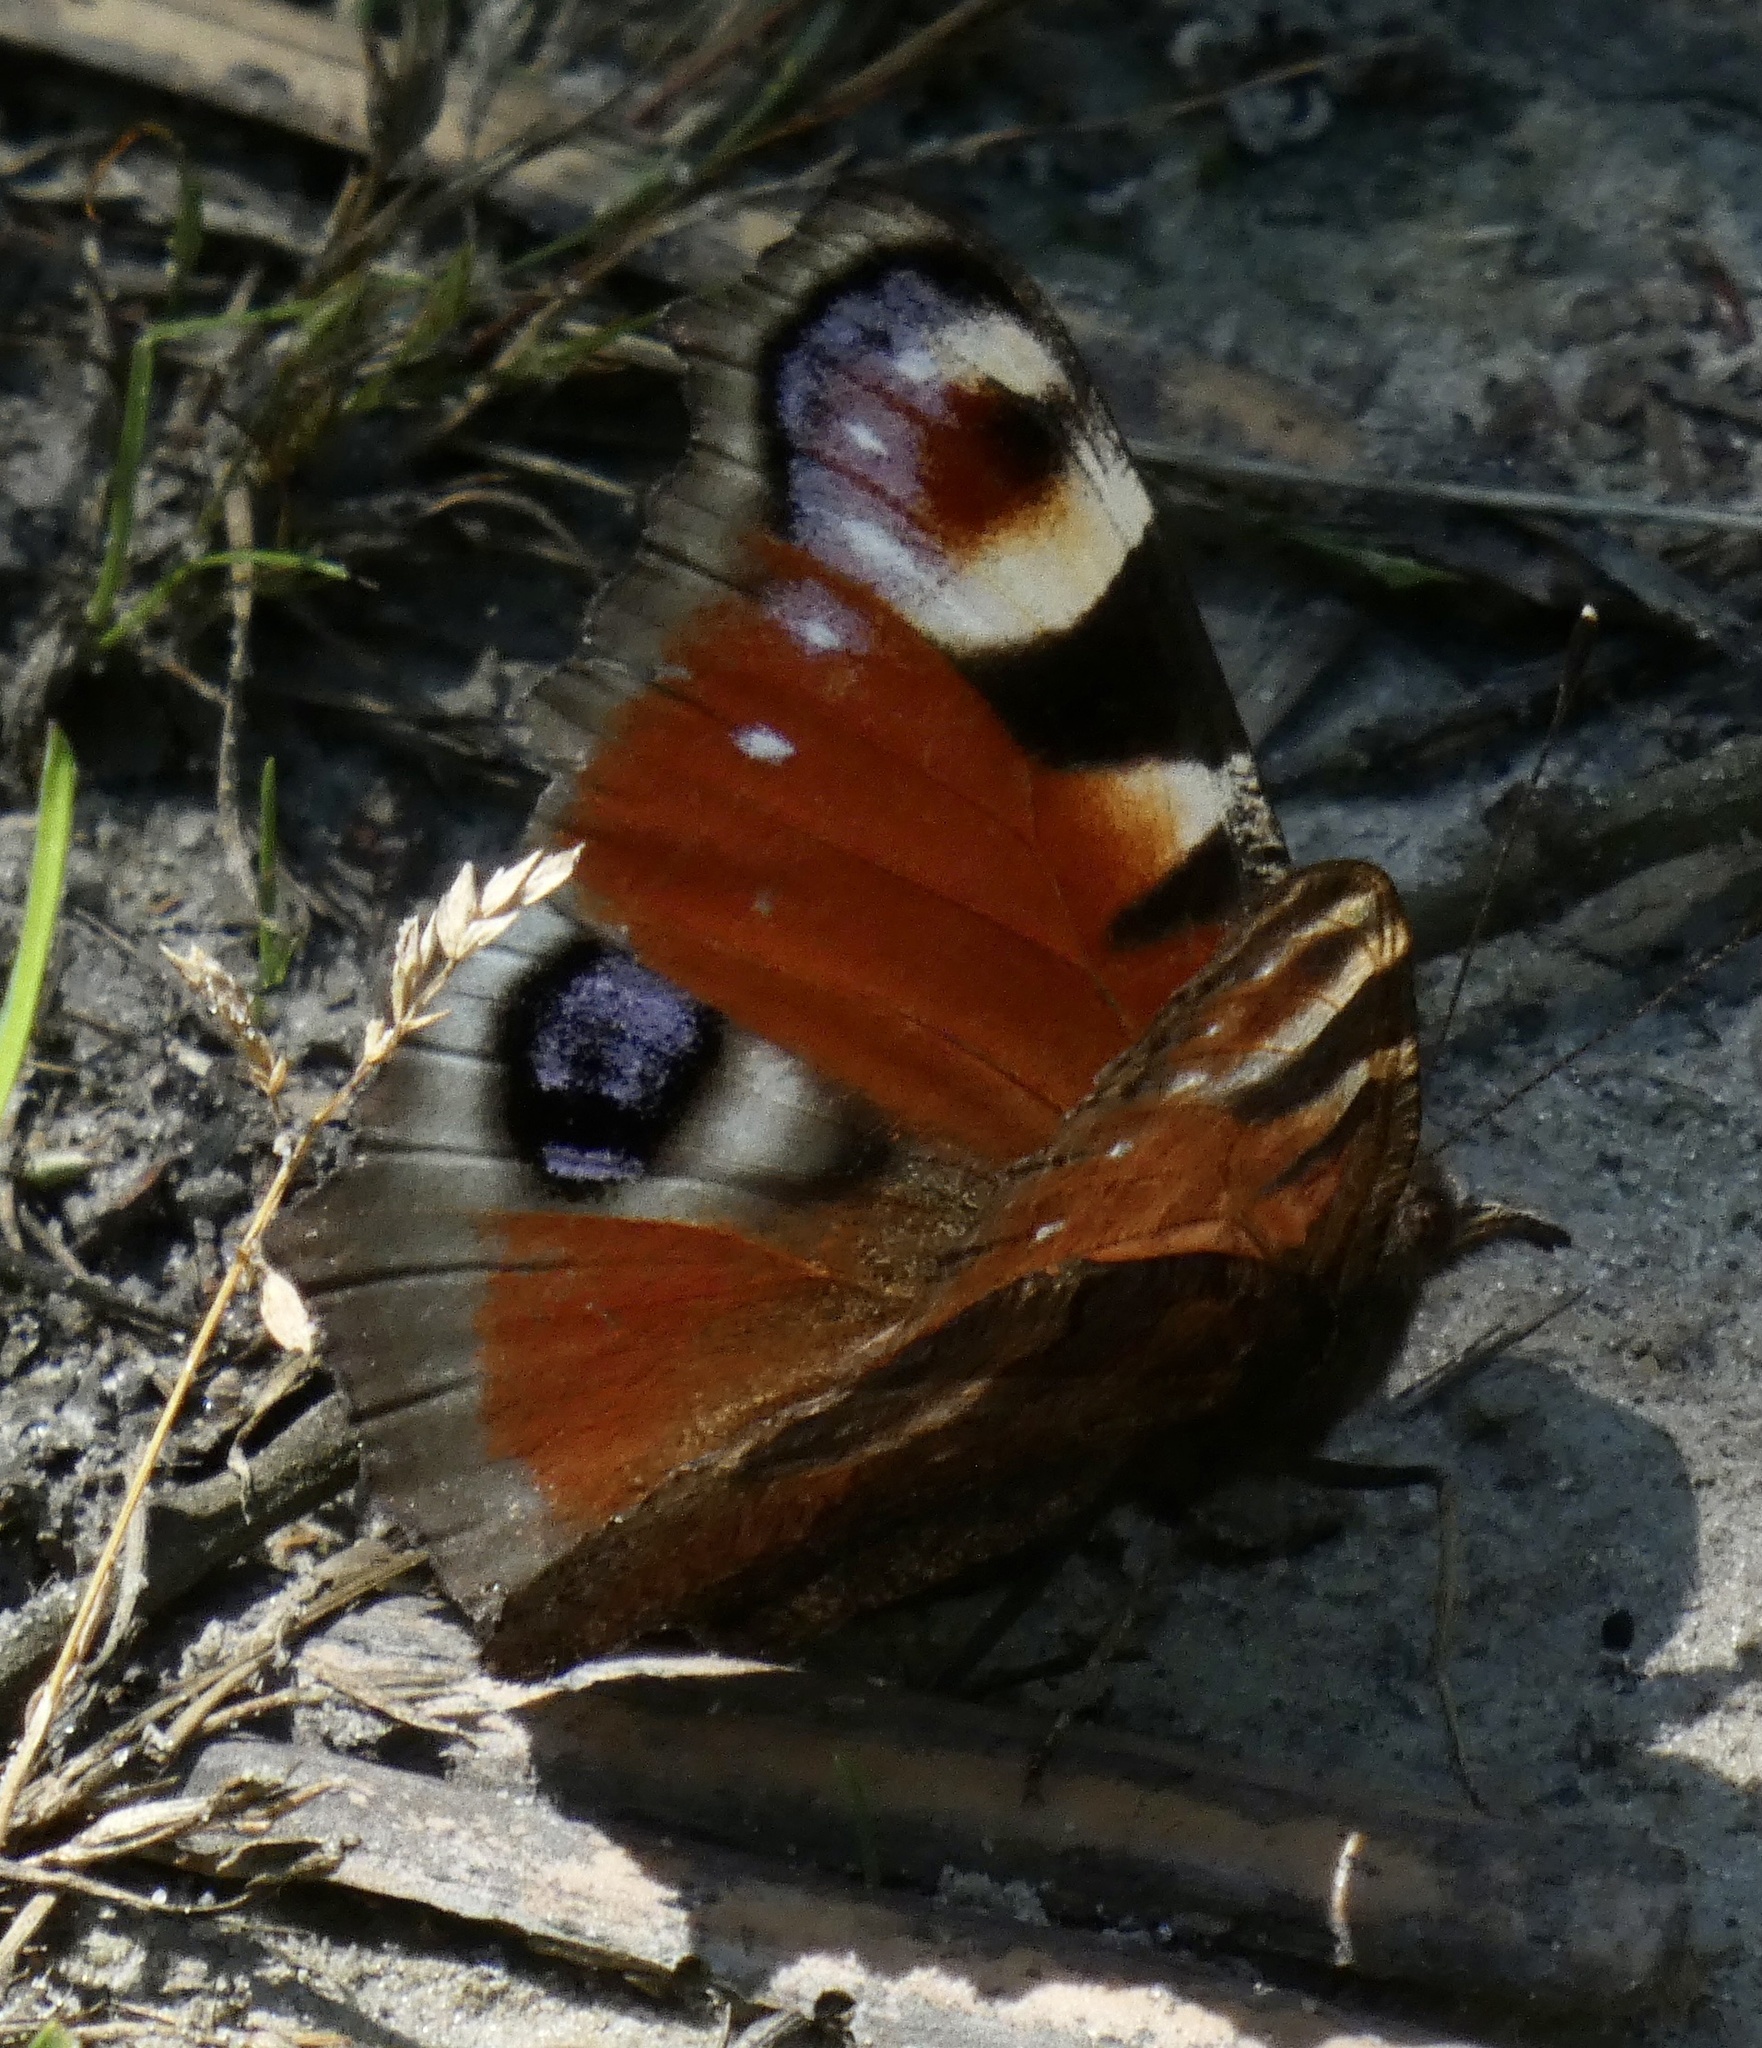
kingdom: Animalia
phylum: Arthropoda
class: Insecta
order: Lepidoptera
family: Nymphalidae
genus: Aglais
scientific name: Aglais io
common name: Peacock
